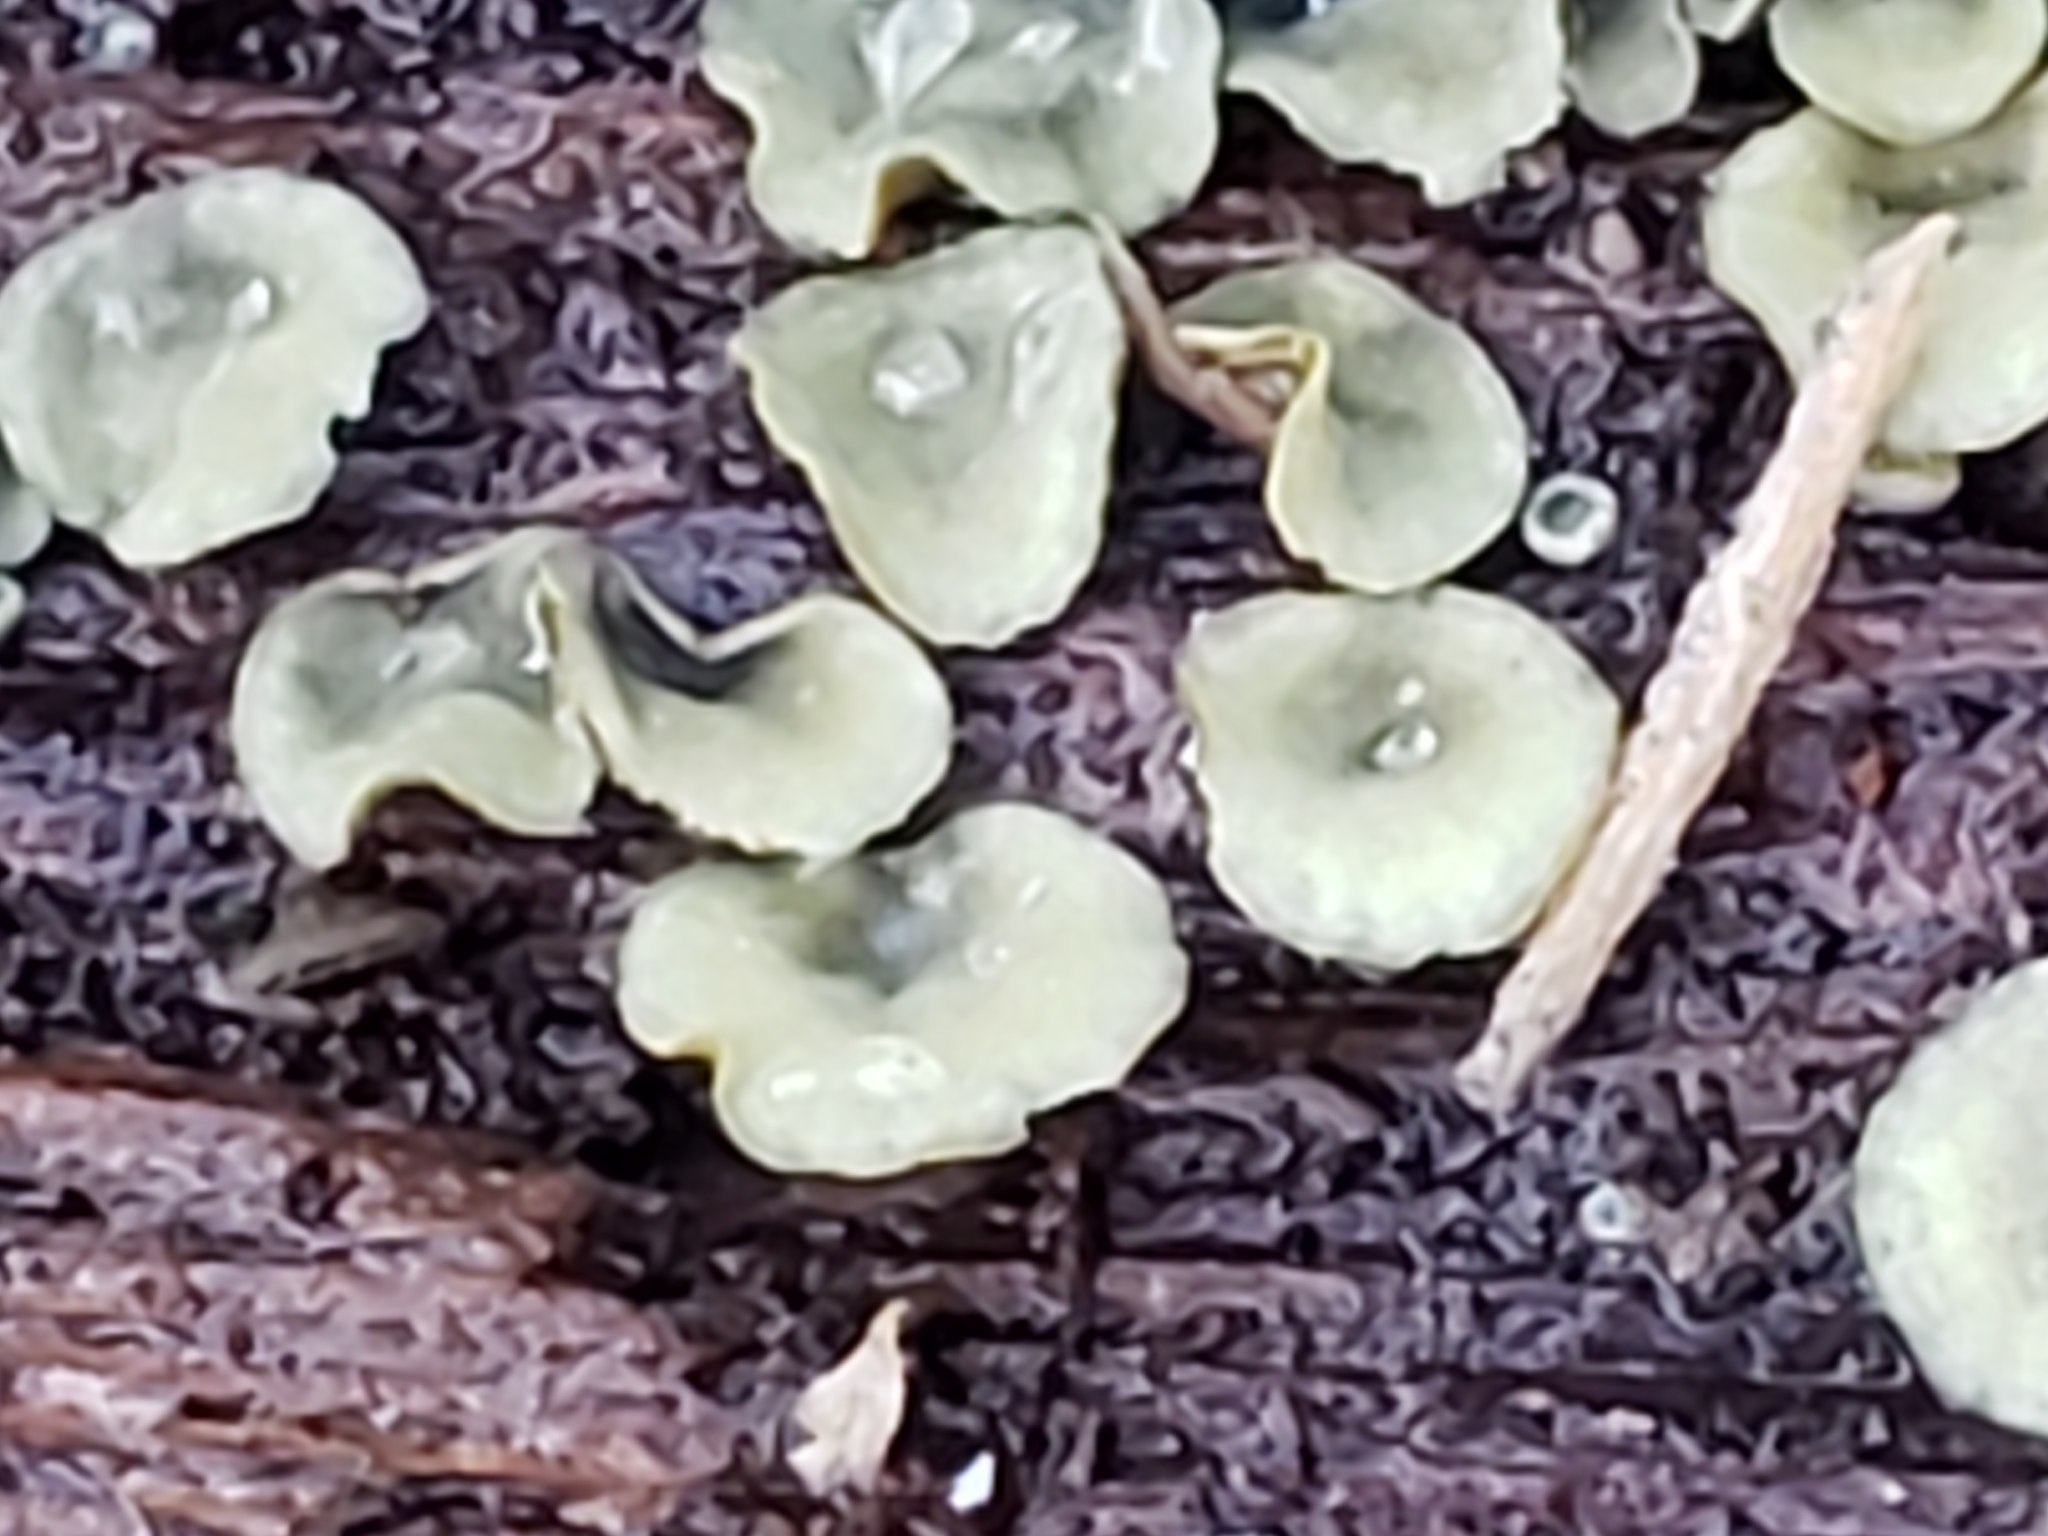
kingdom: Fungi
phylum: Ascomycota
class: Leotiomycetes
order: Helotiales
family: Chlorospleniaceae
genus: Chlorosplenium
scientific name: Chlorosplenium chlora
